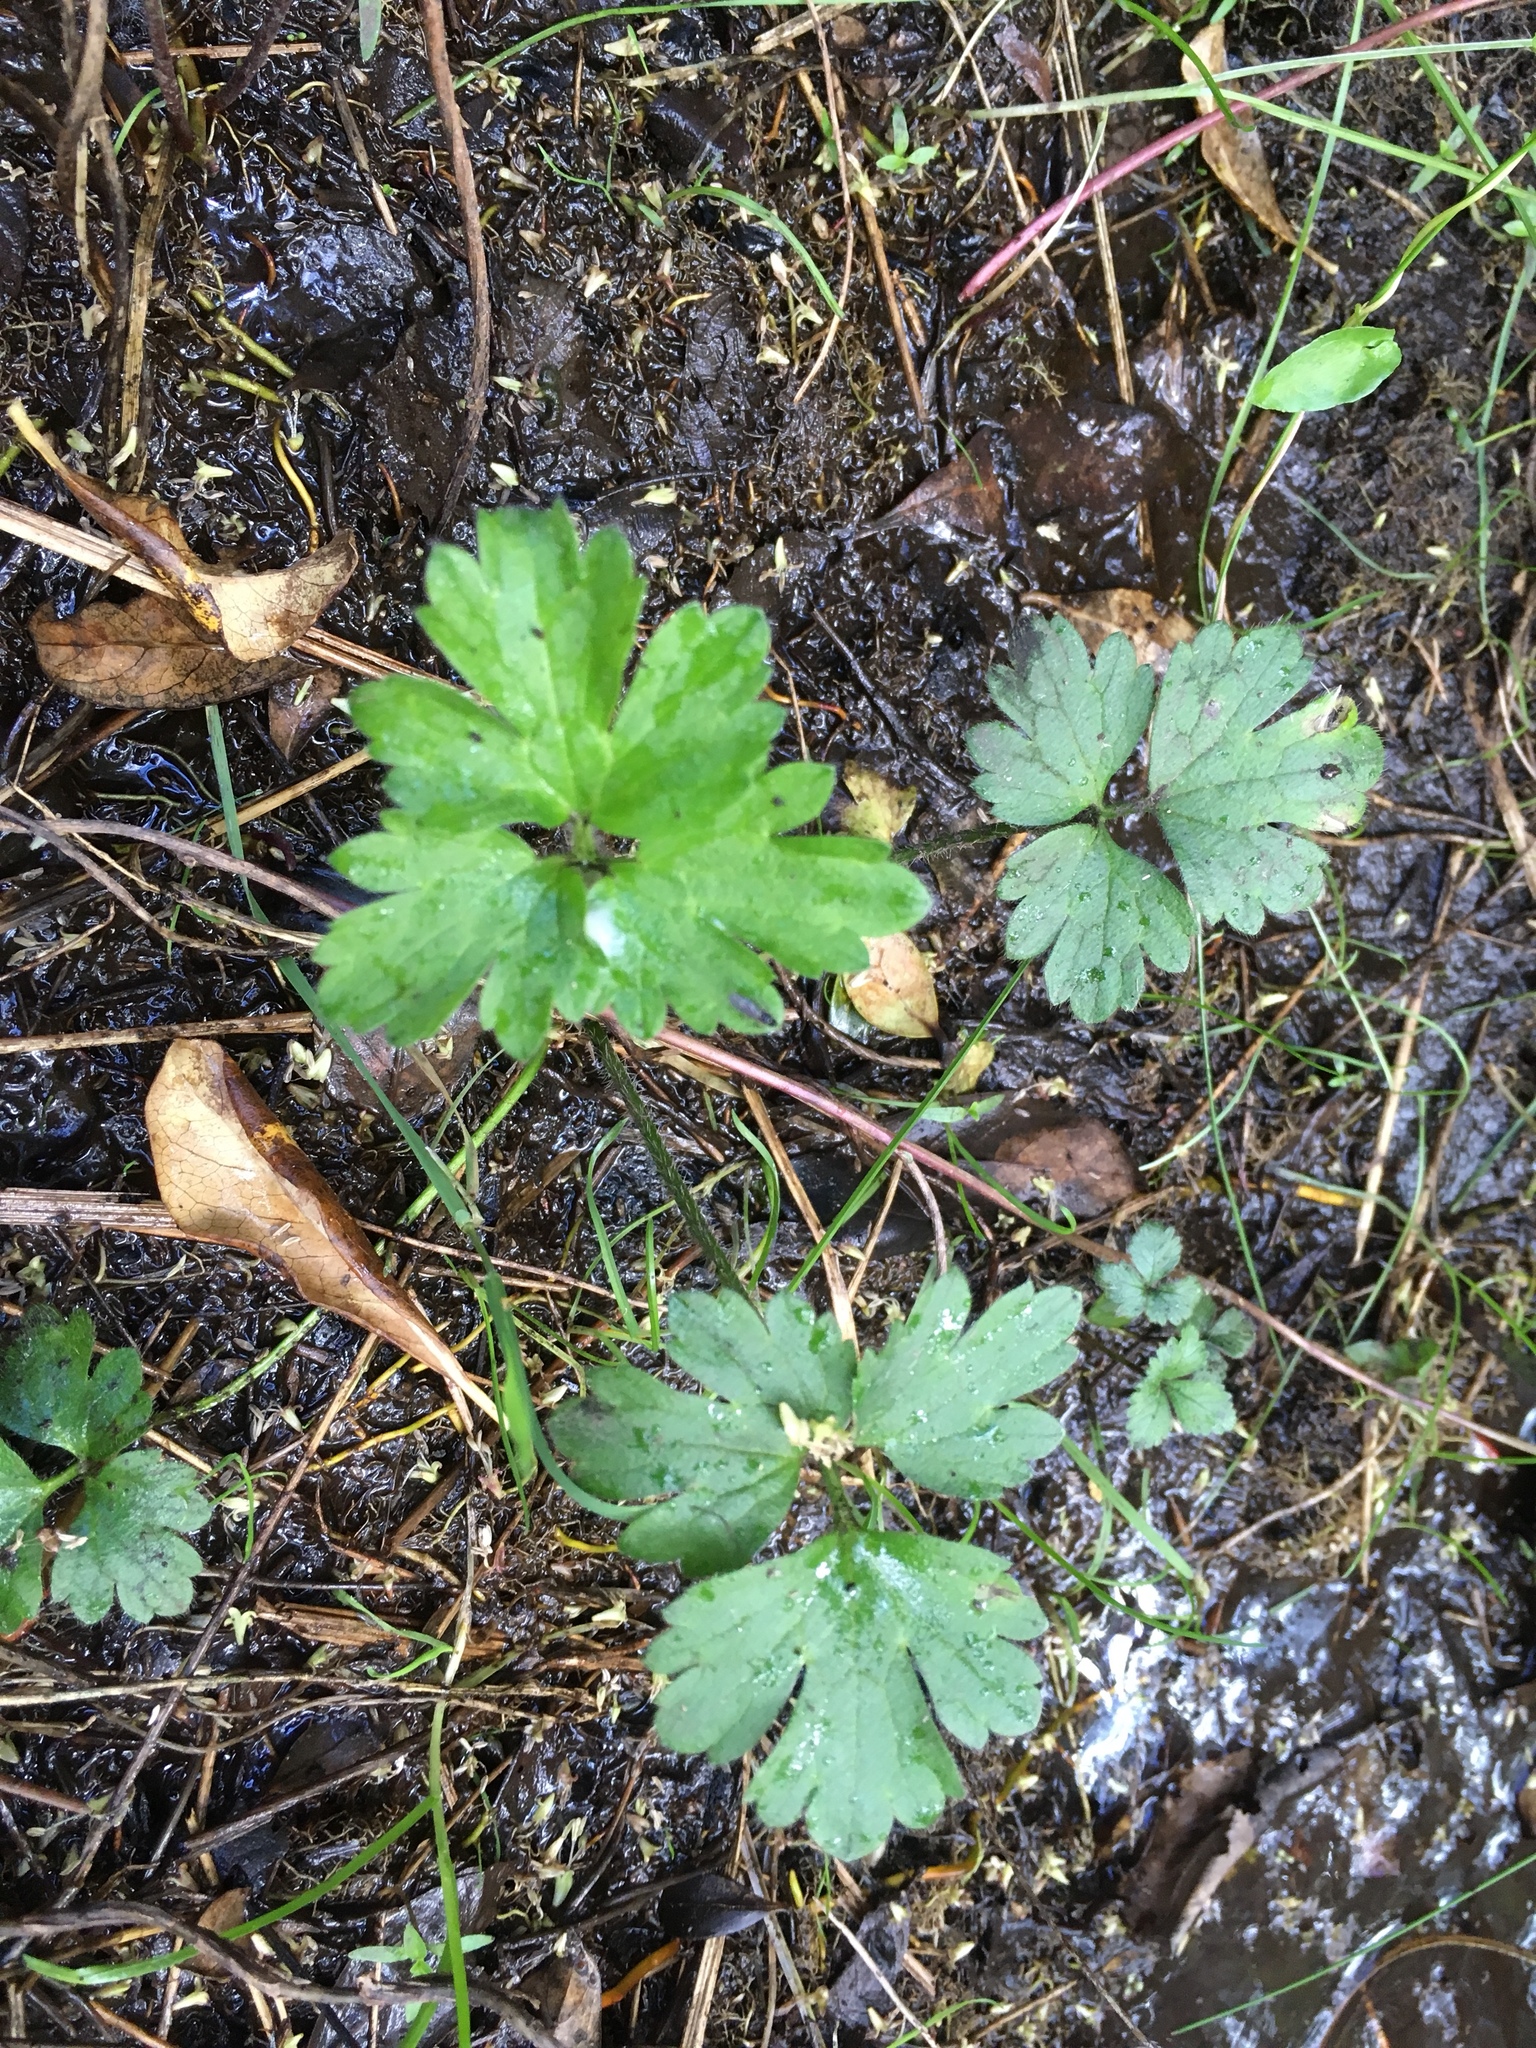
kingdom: Plantae
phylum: Tracheophyta
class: Magnoliopsida
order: Ranunculales
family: Ranunculaceae
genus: Ranunculus
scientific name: Ranunculus repens
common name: Creeping buttercup
